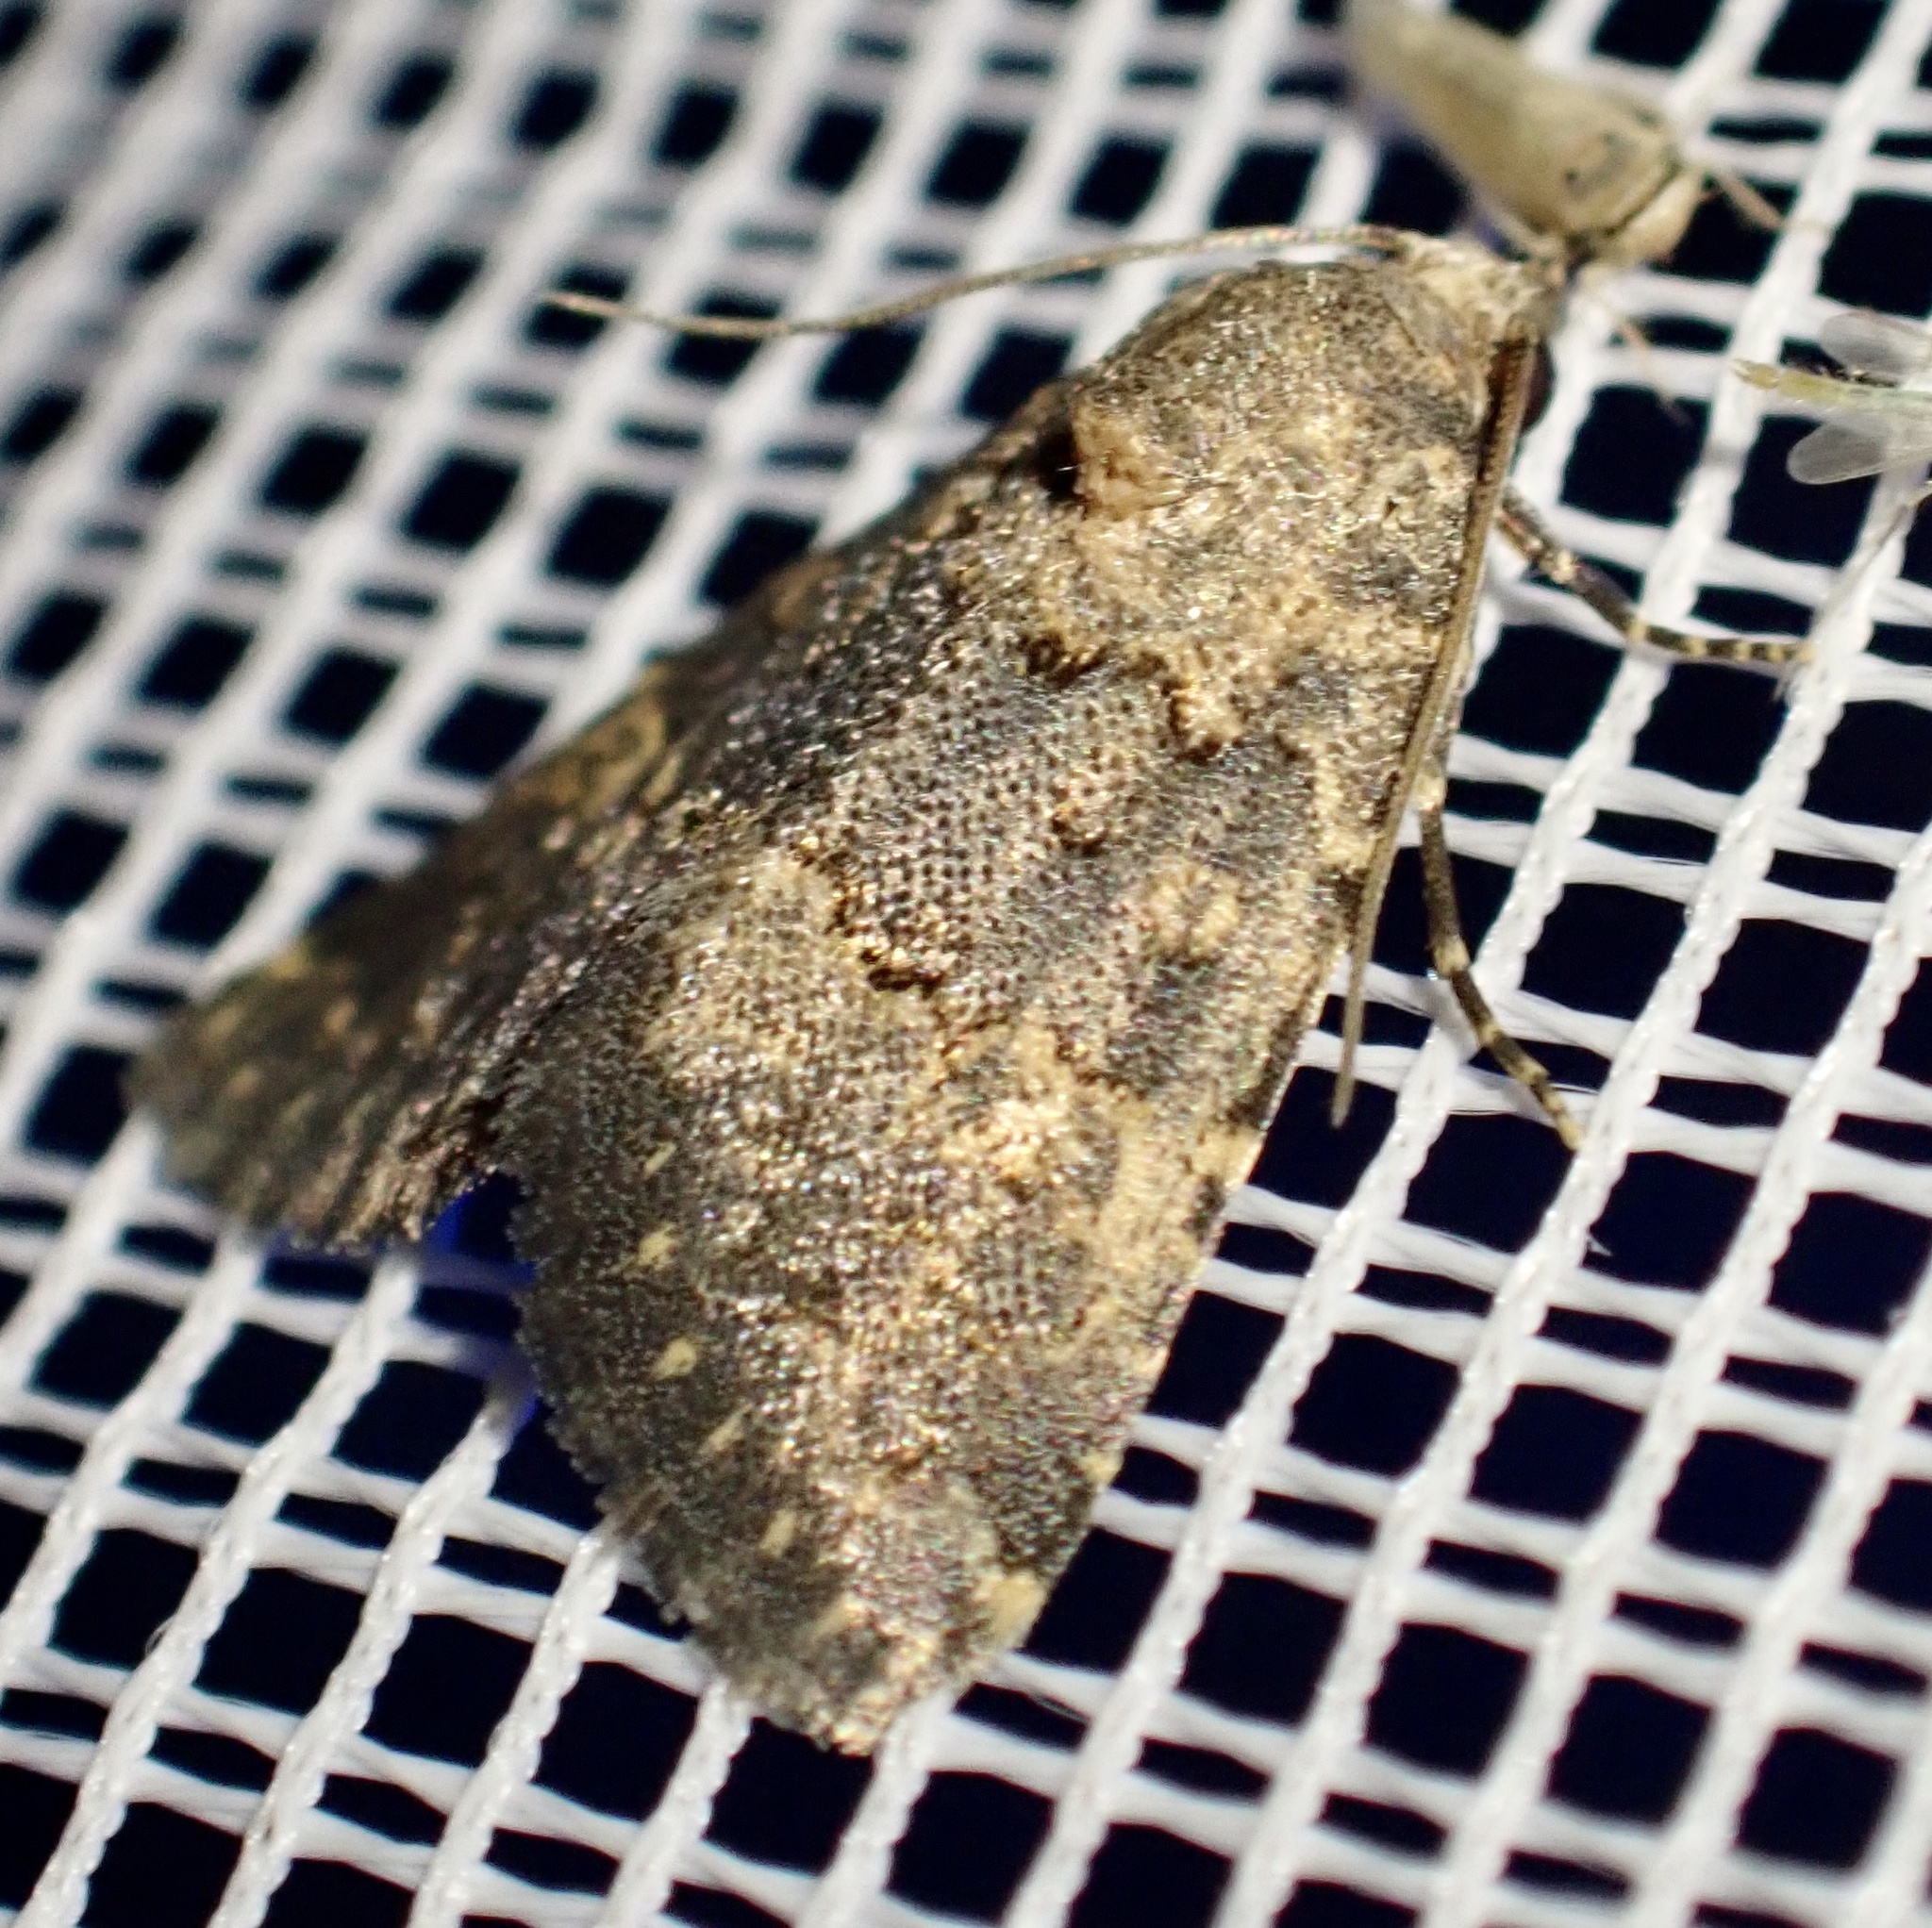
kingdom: Animalia
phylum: Arthropoda
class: Insecta
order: Lepidoptera
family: Noctuidae
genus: Duhemia
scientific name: Duhemia variegata
